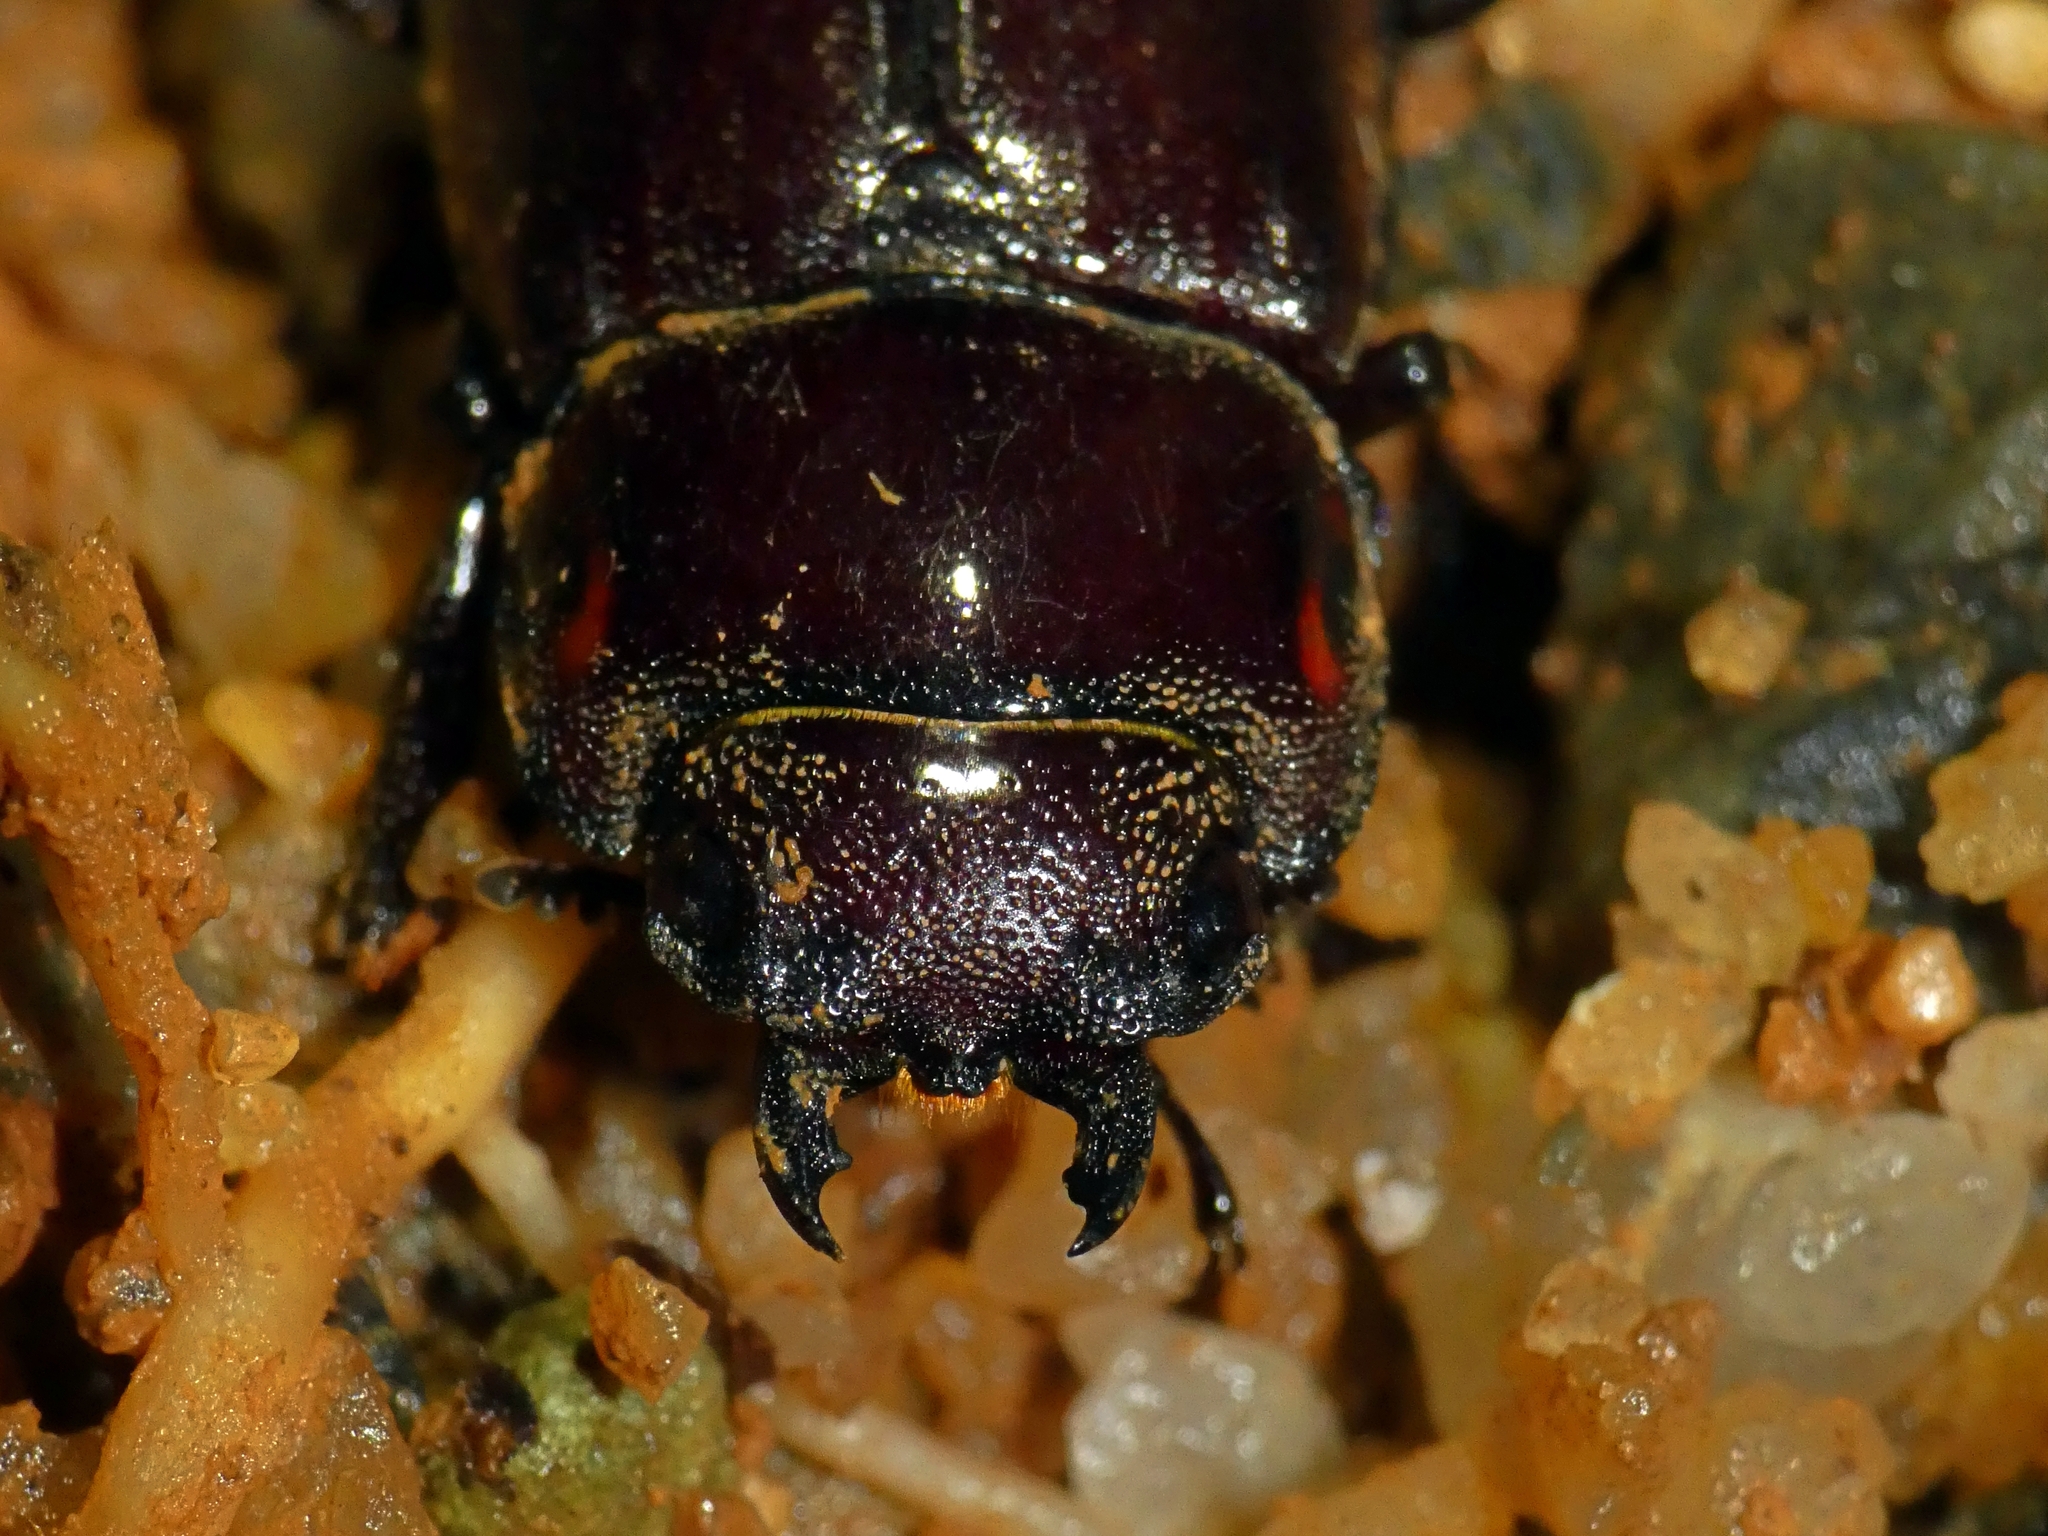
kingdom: Animalia
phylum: Arthropoda
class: Insecta
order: Coleoptera
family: Lucanidae
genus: Prosopocoilus
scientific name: Prosopocoilus torresensis
